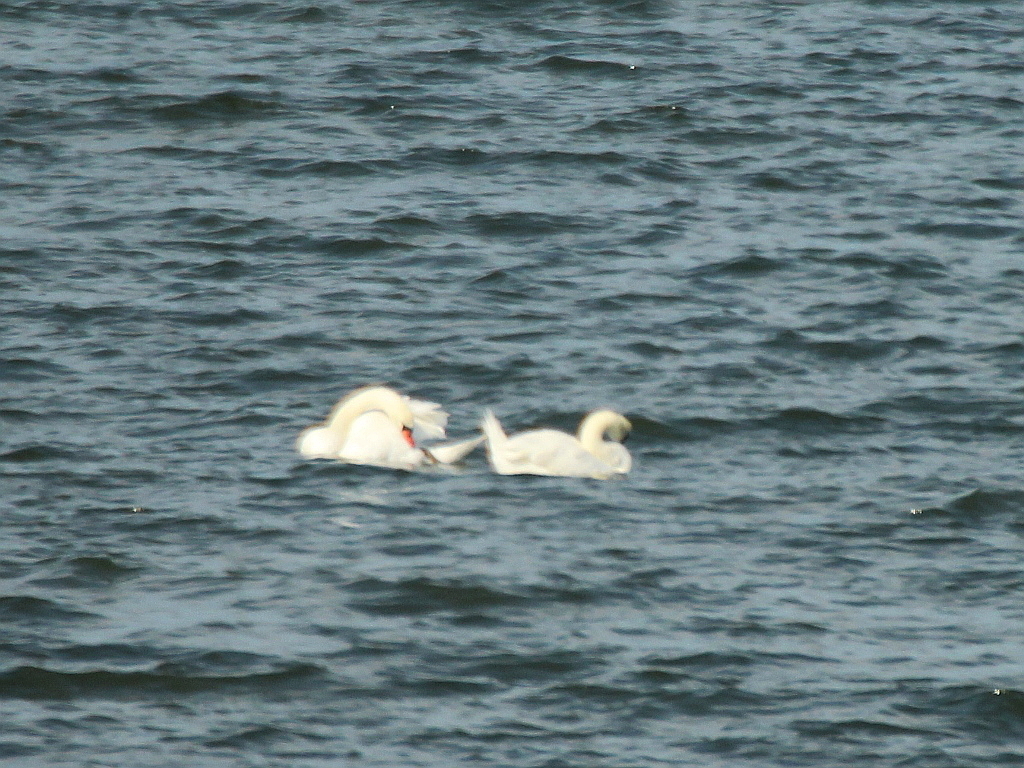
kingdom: Animalia
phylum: Chordata
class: Aves
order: Anseriformes
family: Anatidae
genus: Cygnus
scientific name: Cygnus olor
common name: Mute swan
